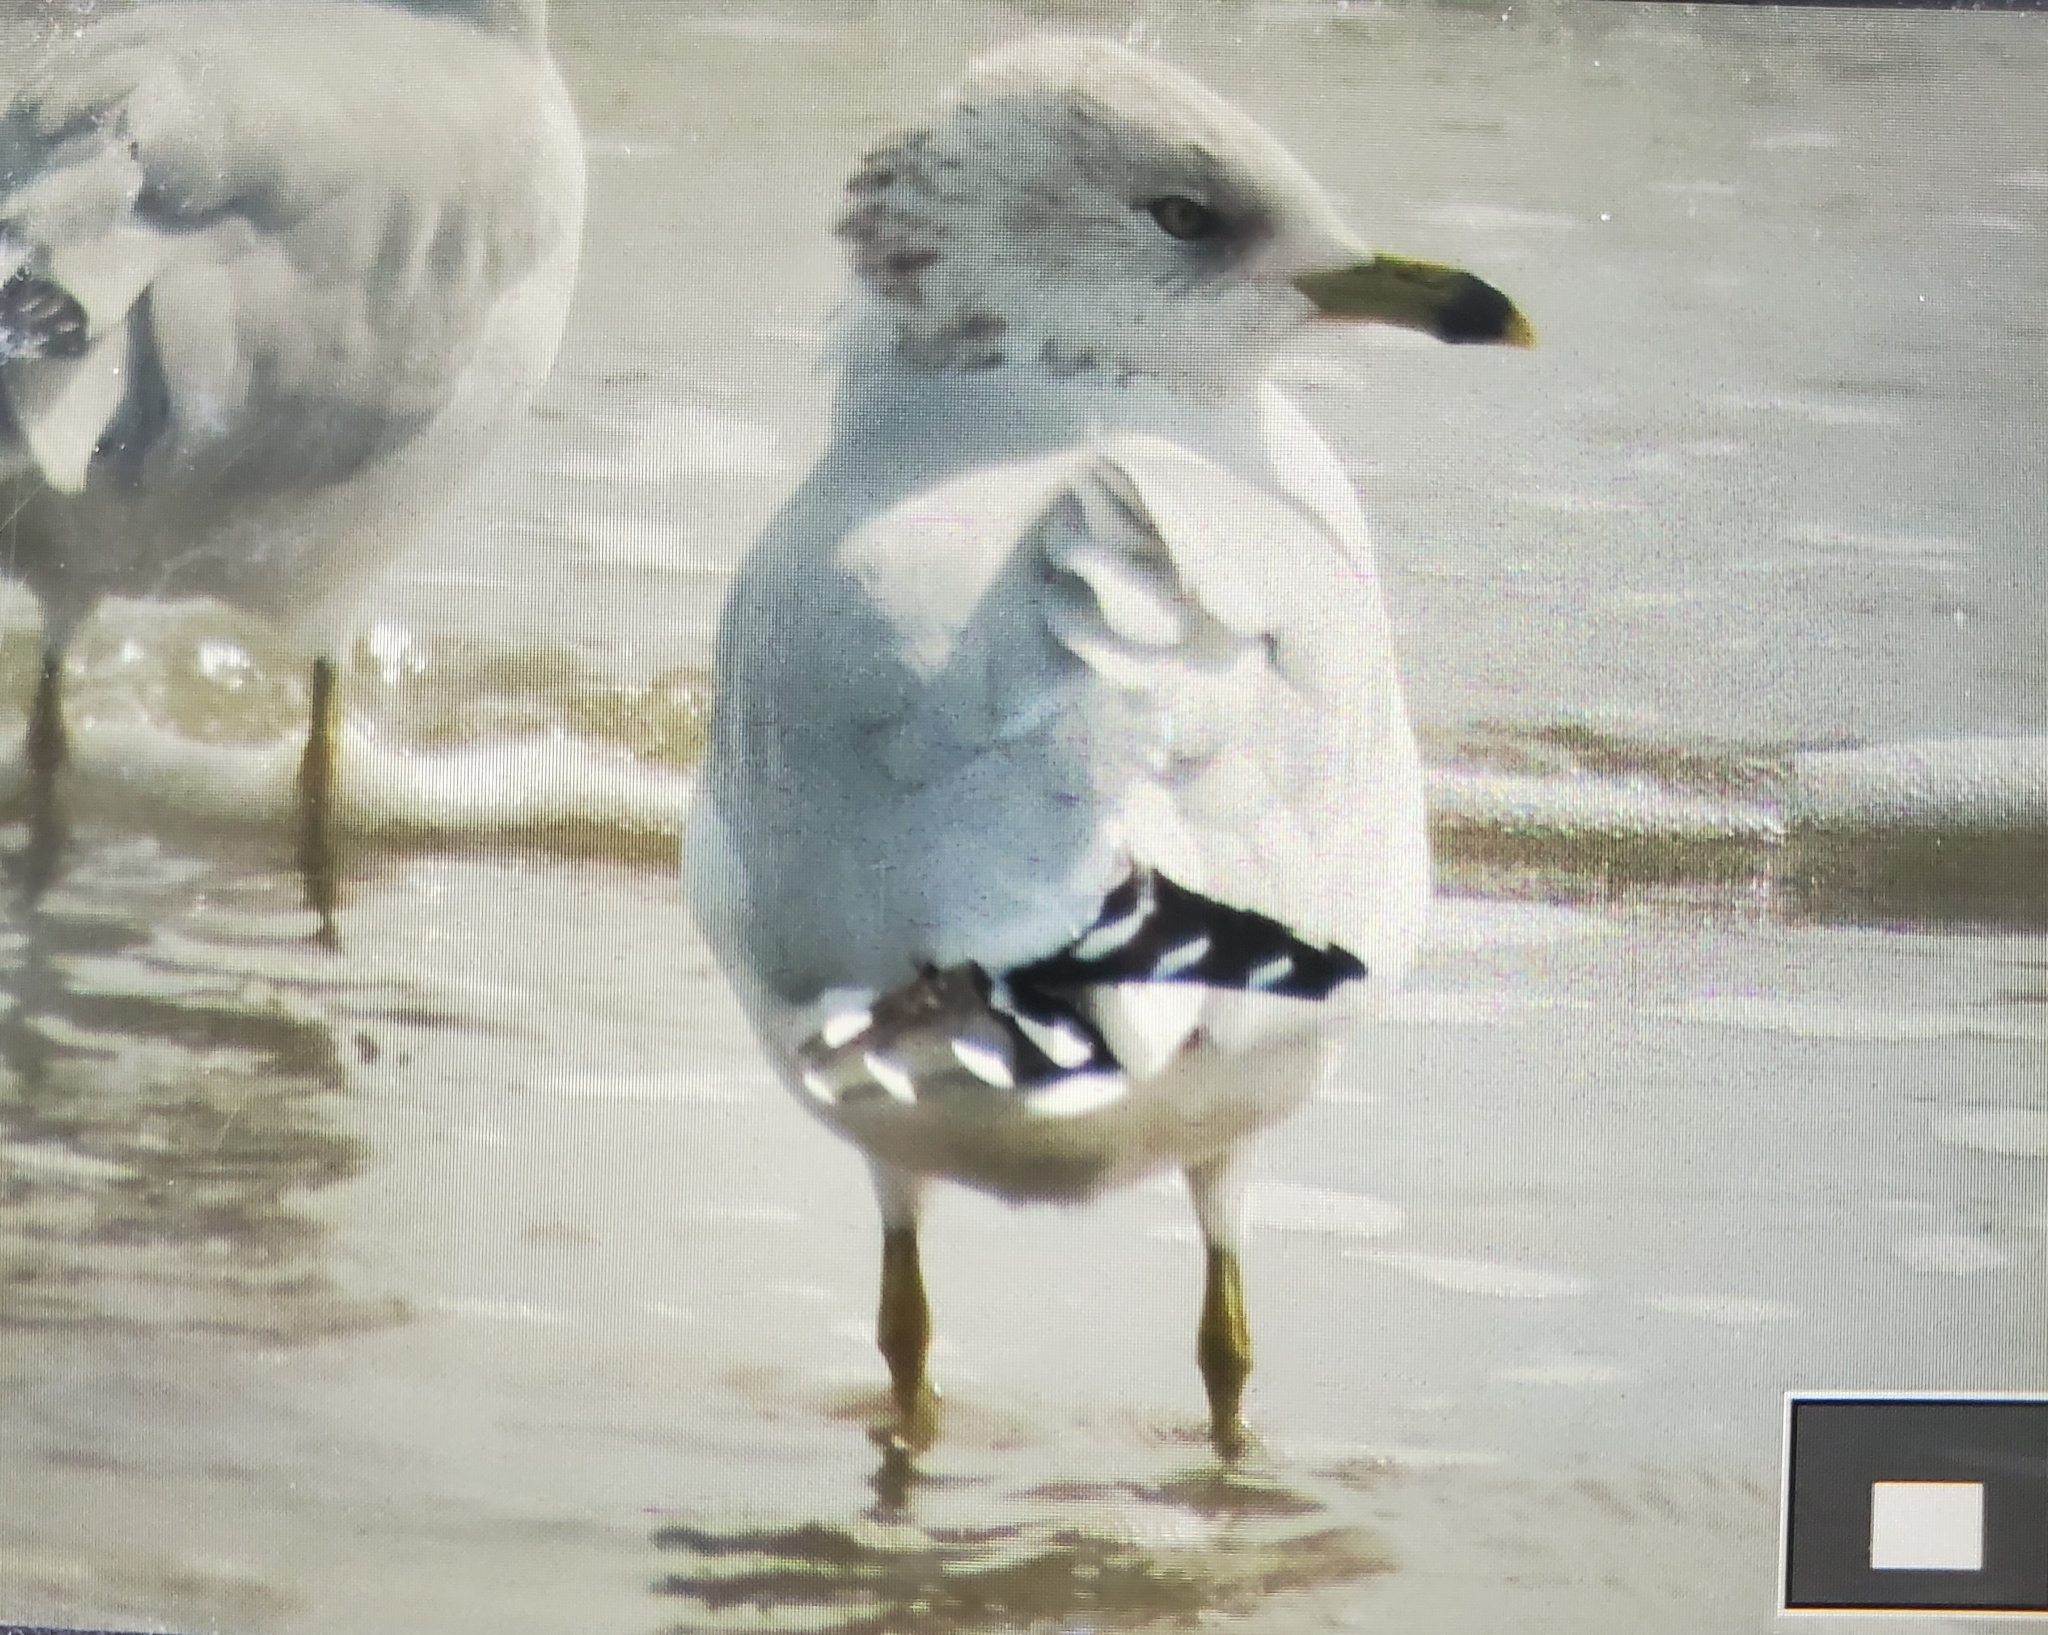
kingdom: Animalia
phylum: Chordata
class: Aves
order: Charadriiformes
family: Laridae
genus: Larus
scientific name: Larus delawarensis
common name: Ring-billed gull
